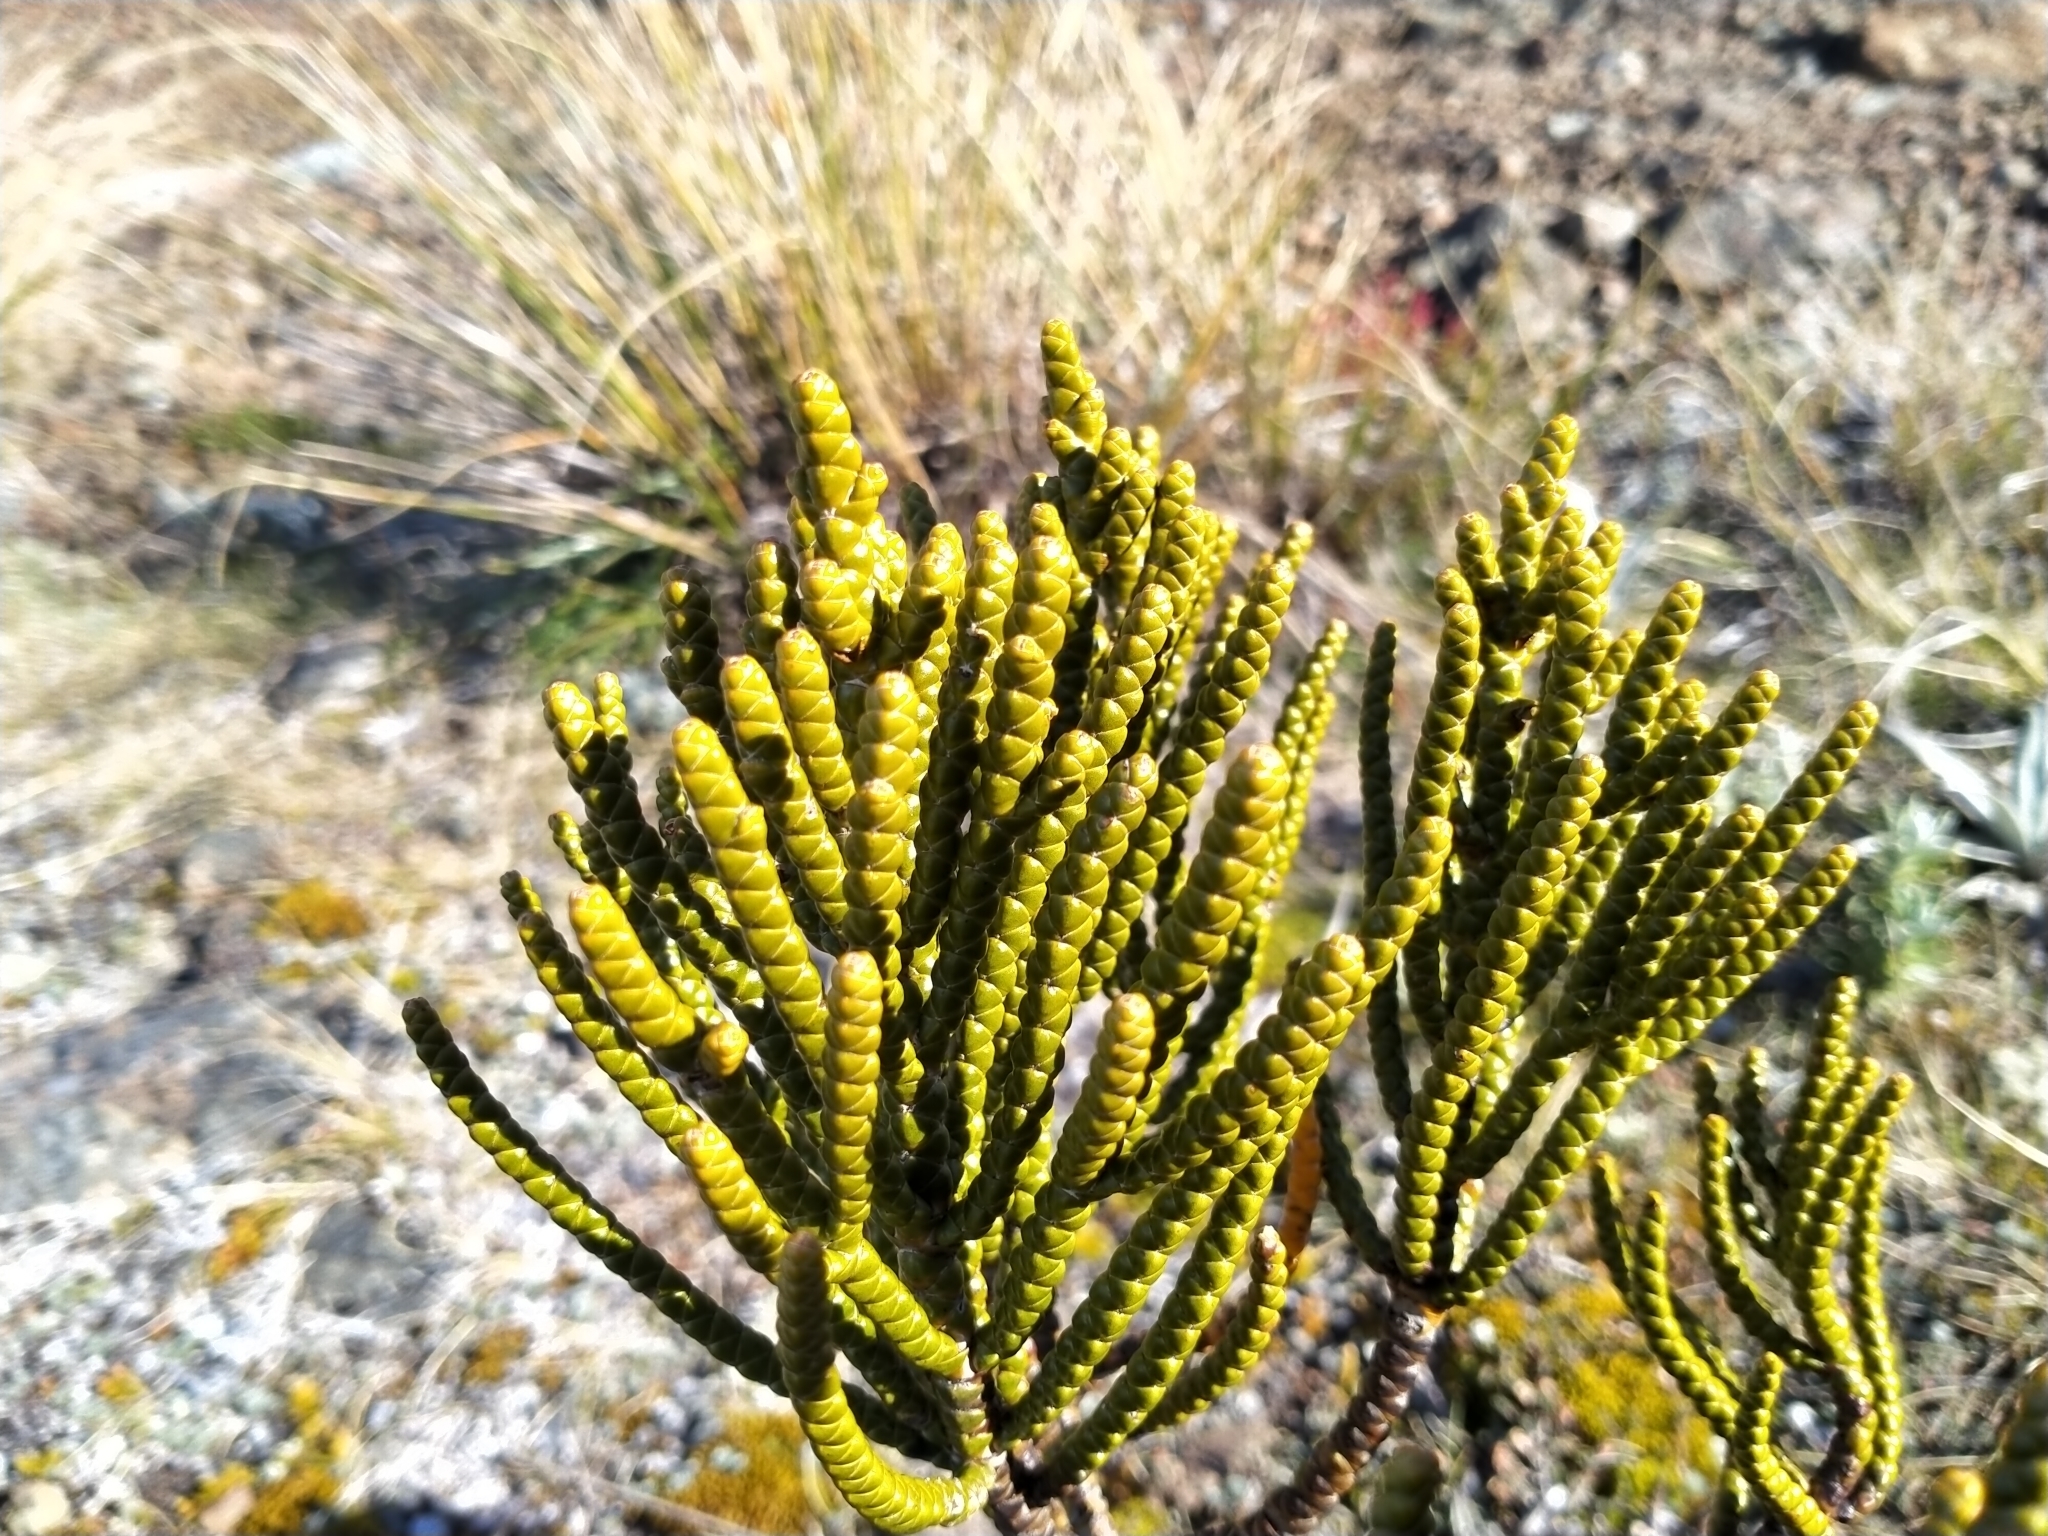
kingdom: Plantae
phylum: Tracheophyta
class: Magnoliopsida
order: Lamiales
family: Plantaginaceae
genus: Veronica
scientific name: Veronica hectorii
